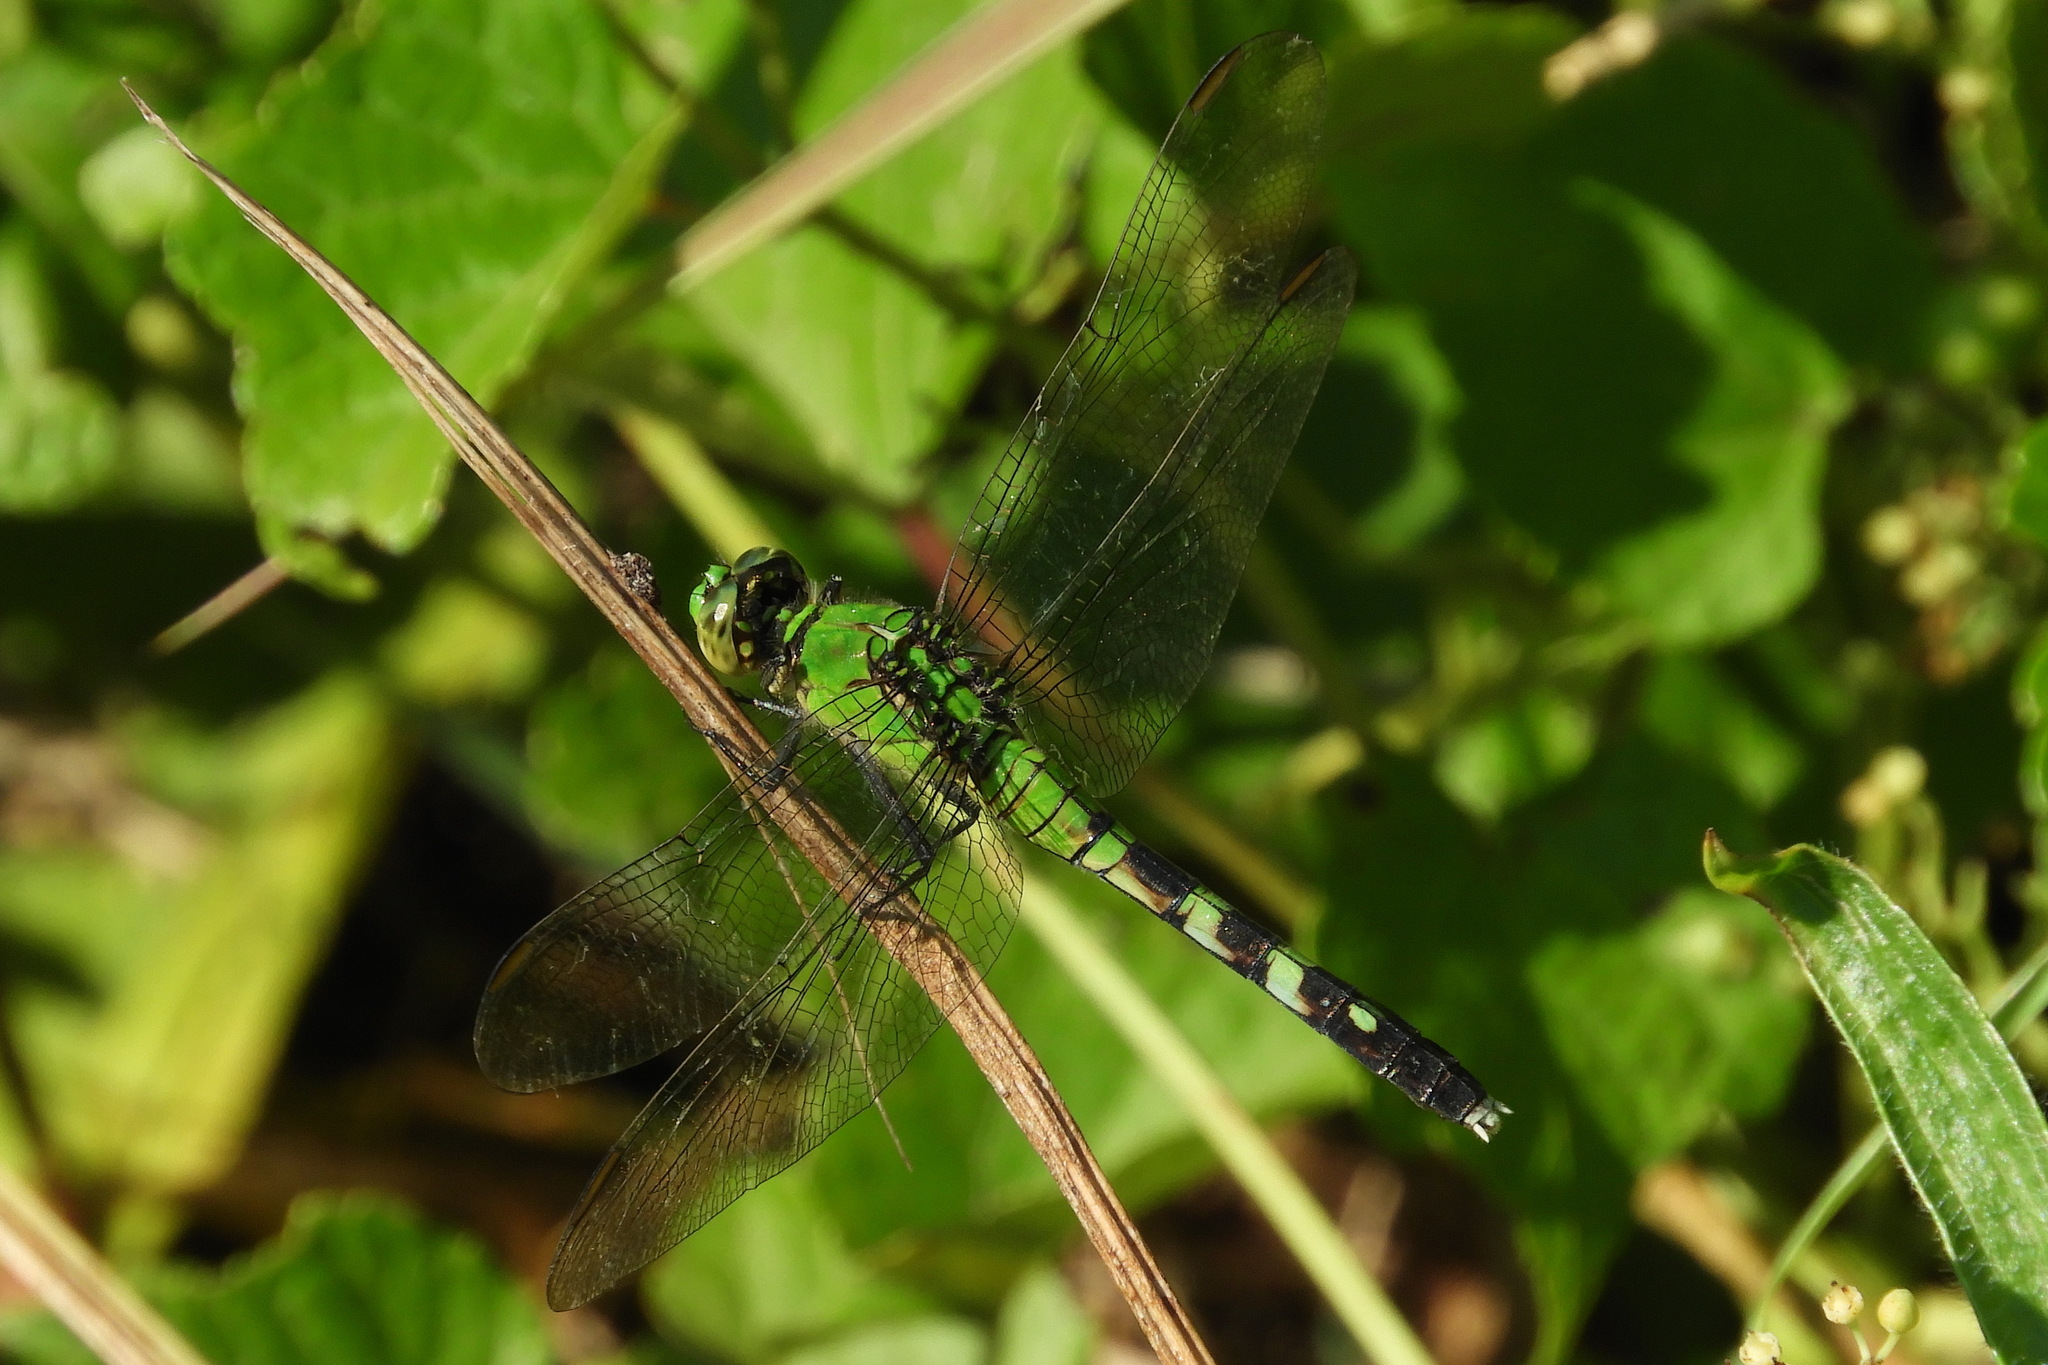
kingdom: Animalia
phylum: Arthropoda
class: Insecta
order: Odonata
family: Libellulidae
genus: Erythemis
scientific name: Erythemis simplicicollis
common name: Eastern pondhawk
